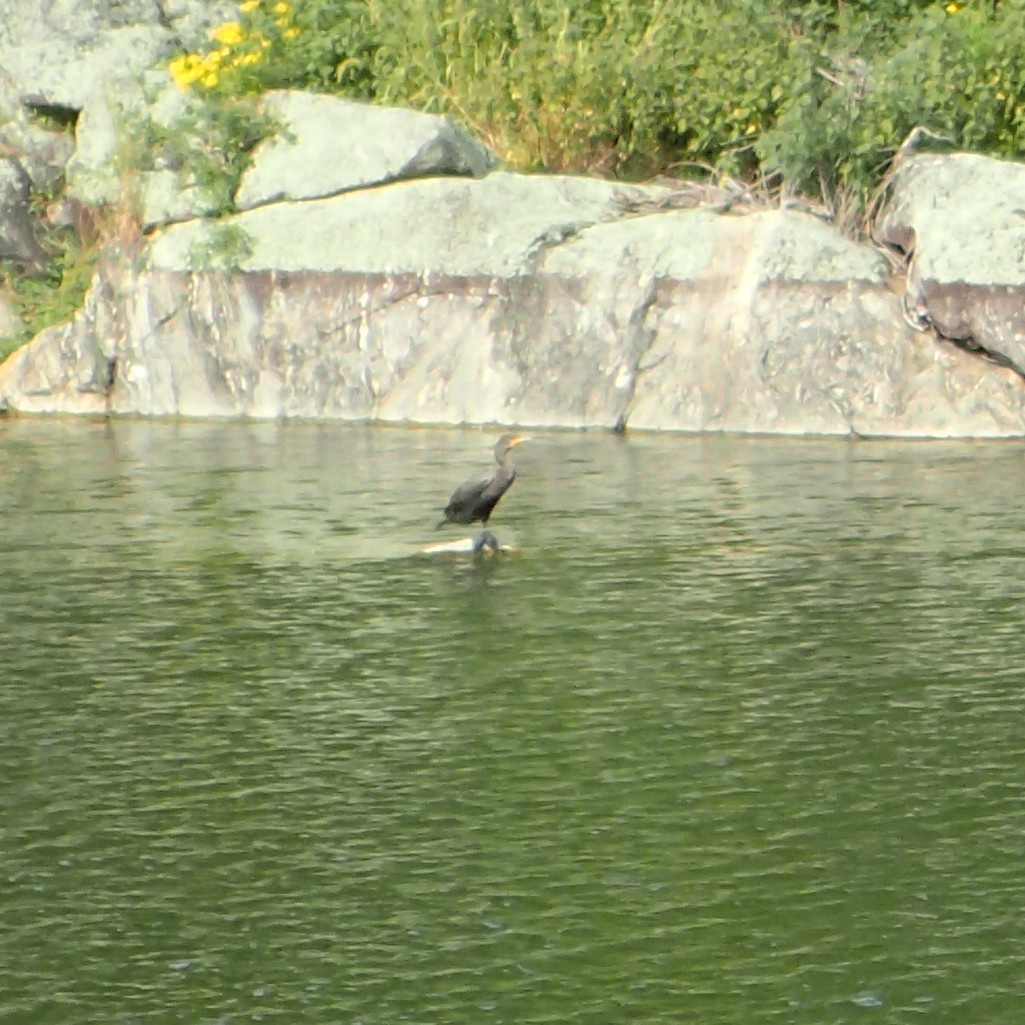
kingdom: Animalia
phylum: Chordata
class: Aves
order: Suliformes
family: Phalacrocoracidae
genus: Phalacrocorax
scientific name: Phalacrocorax auritus
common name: Double-crested cormorant
